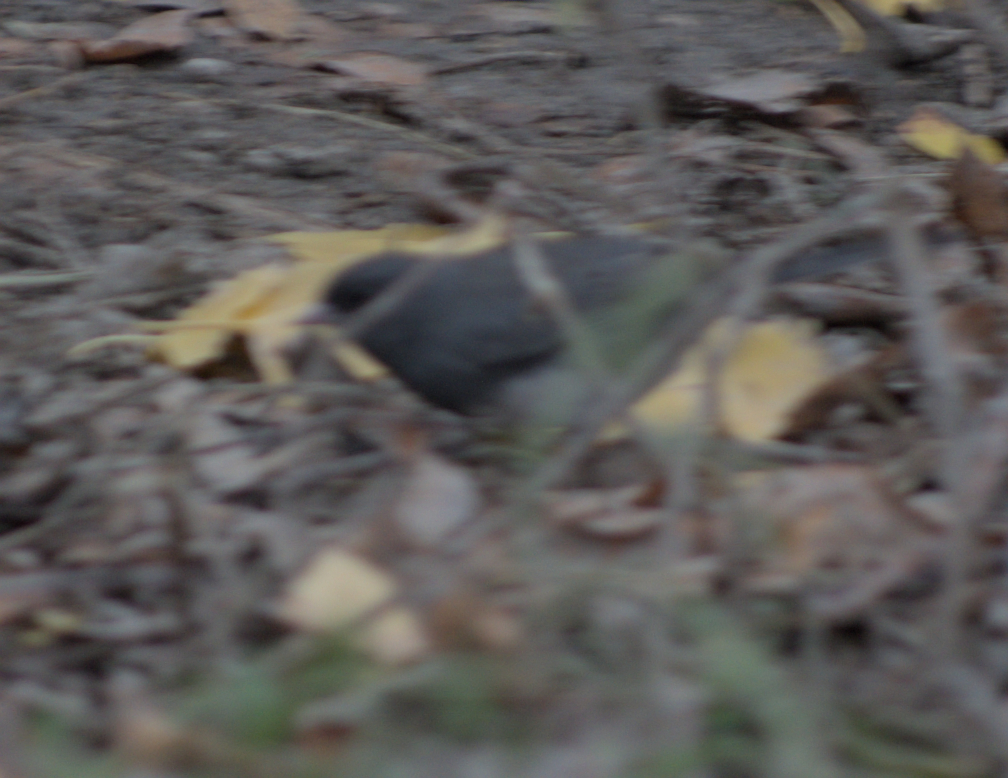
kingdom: Animalia
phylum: Chordata
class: Aves
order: Passeriformes
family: Passerellidae
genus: Junco
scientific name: Junco hyemalis
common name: Dark-eyed junco
